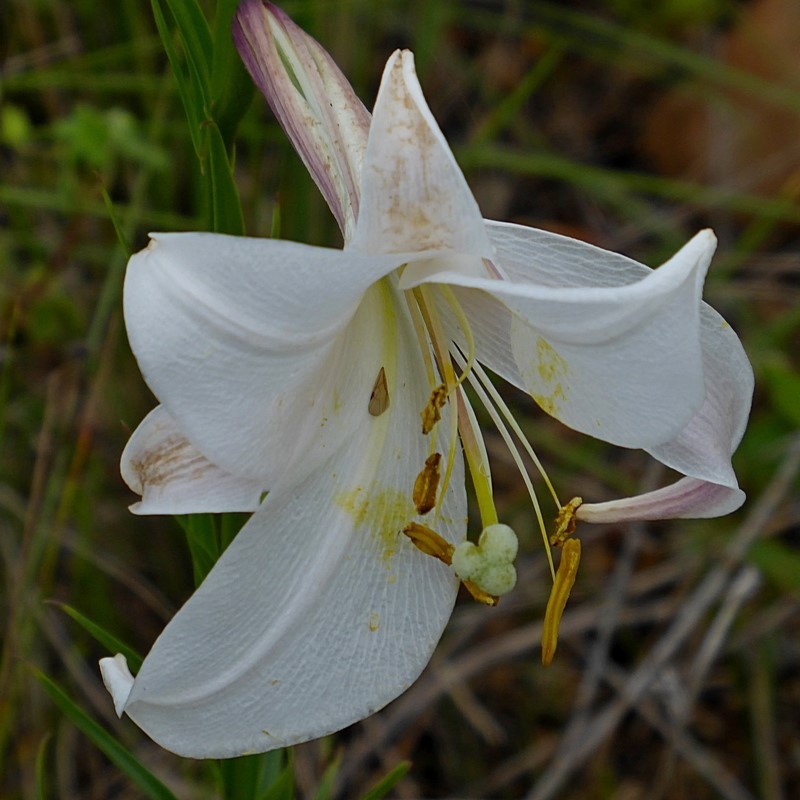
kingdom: Plantae
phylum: Tracheophyta
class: Liliopsida
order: Liliales
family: Liliaceae
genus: Lilium
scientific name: Lilium formosanum
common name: Formosa lily
